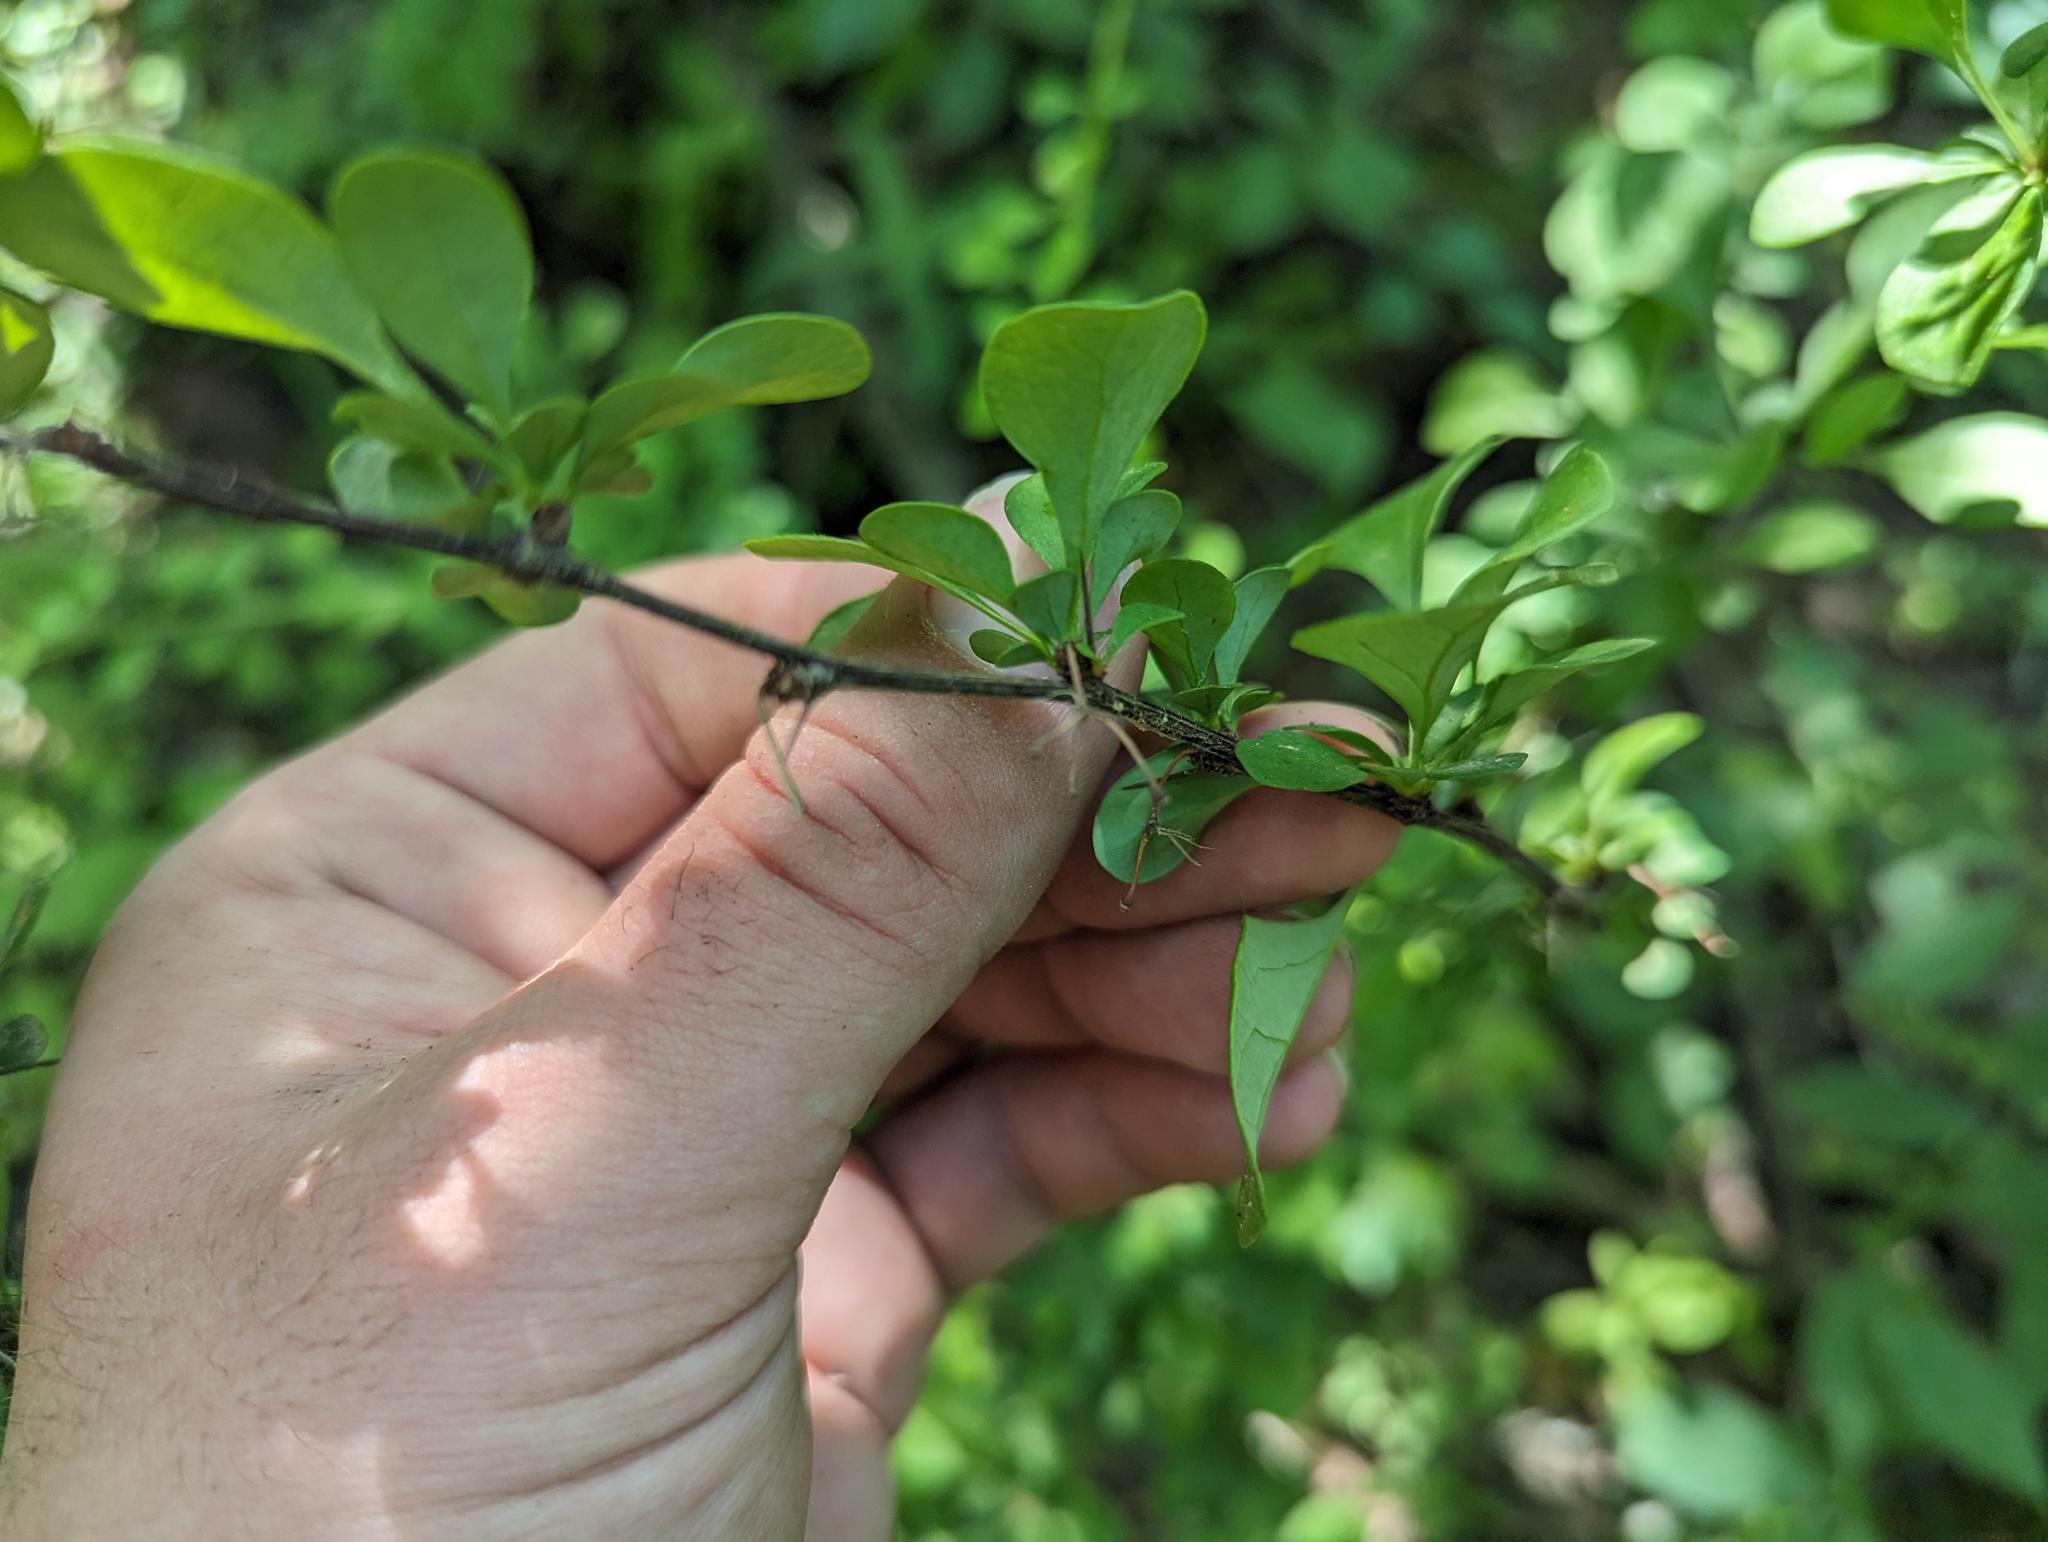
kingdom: Plantae
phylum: Tracheophyta
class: Magnoliopsida
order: Ranunculales
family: Berberidaceae
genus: Berberis
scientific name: Berberis thunbergii
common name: Japanese barberry
